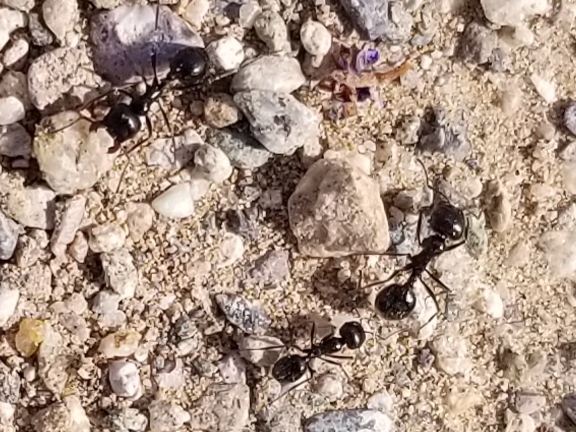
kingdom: Animalia
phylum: Arthropoda
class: Insecta
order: Hymenoptera
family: Formicidae
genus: Messor
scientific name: Messor pergandei
